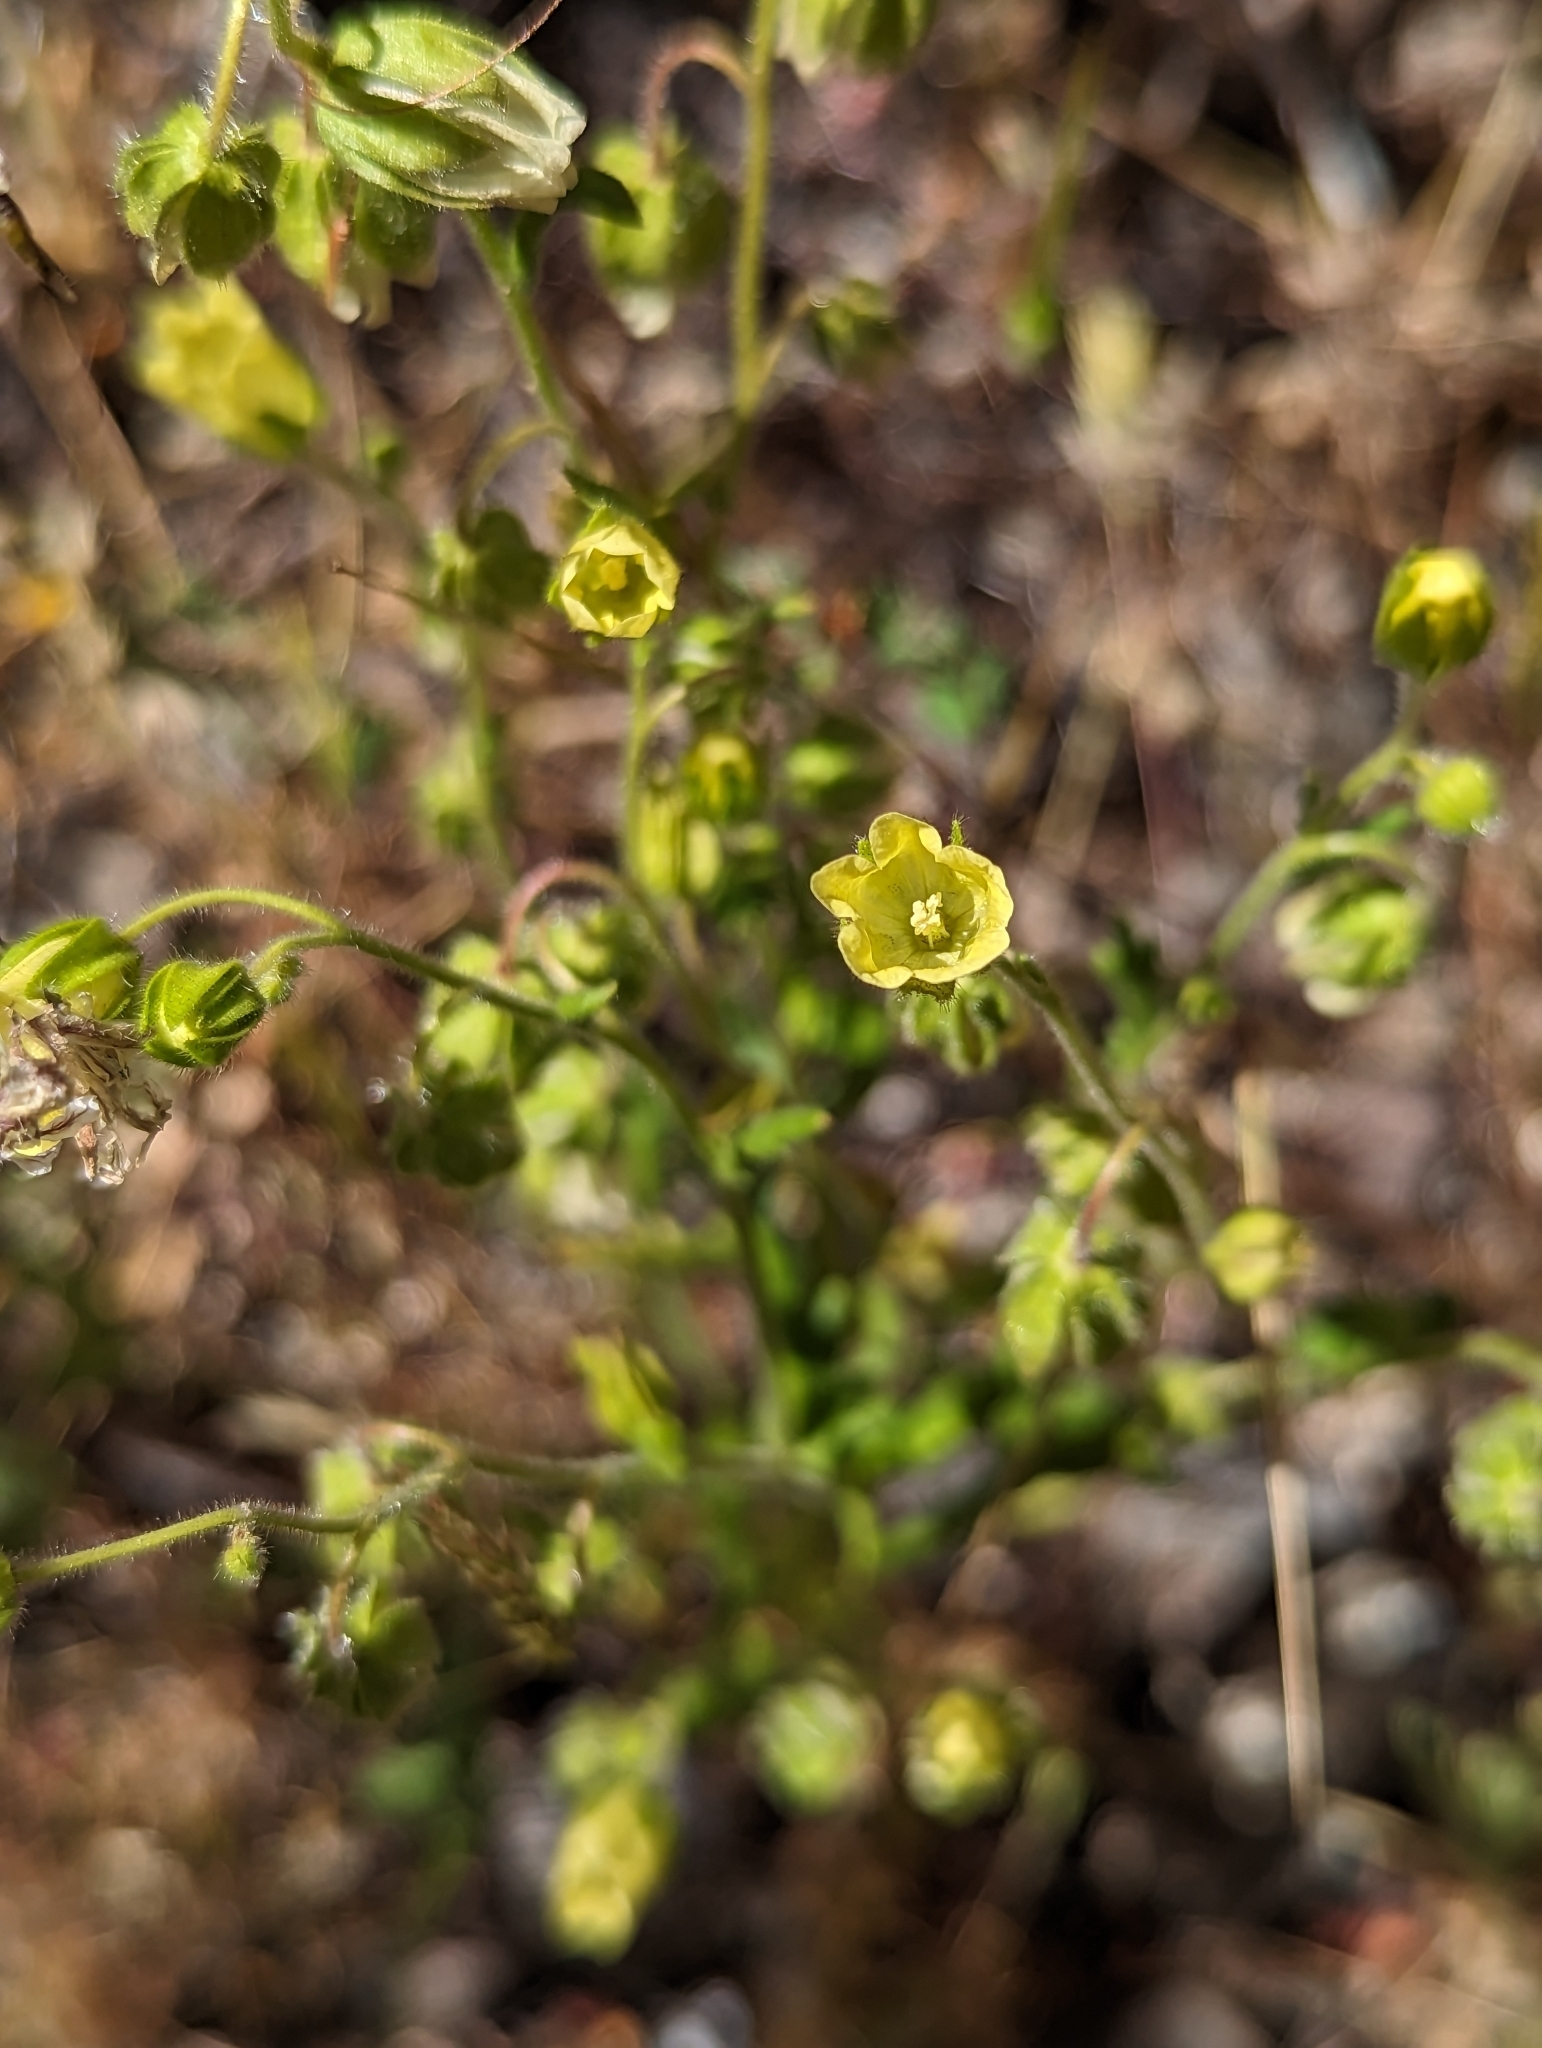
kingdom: Plantae
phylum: Tracheophyta
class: Magnoliopsida
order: Boraginales
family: Hydrophyllaceae
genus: Emmenanthe
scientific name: Emmenanthe penduliflora
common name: Whispering-bells
